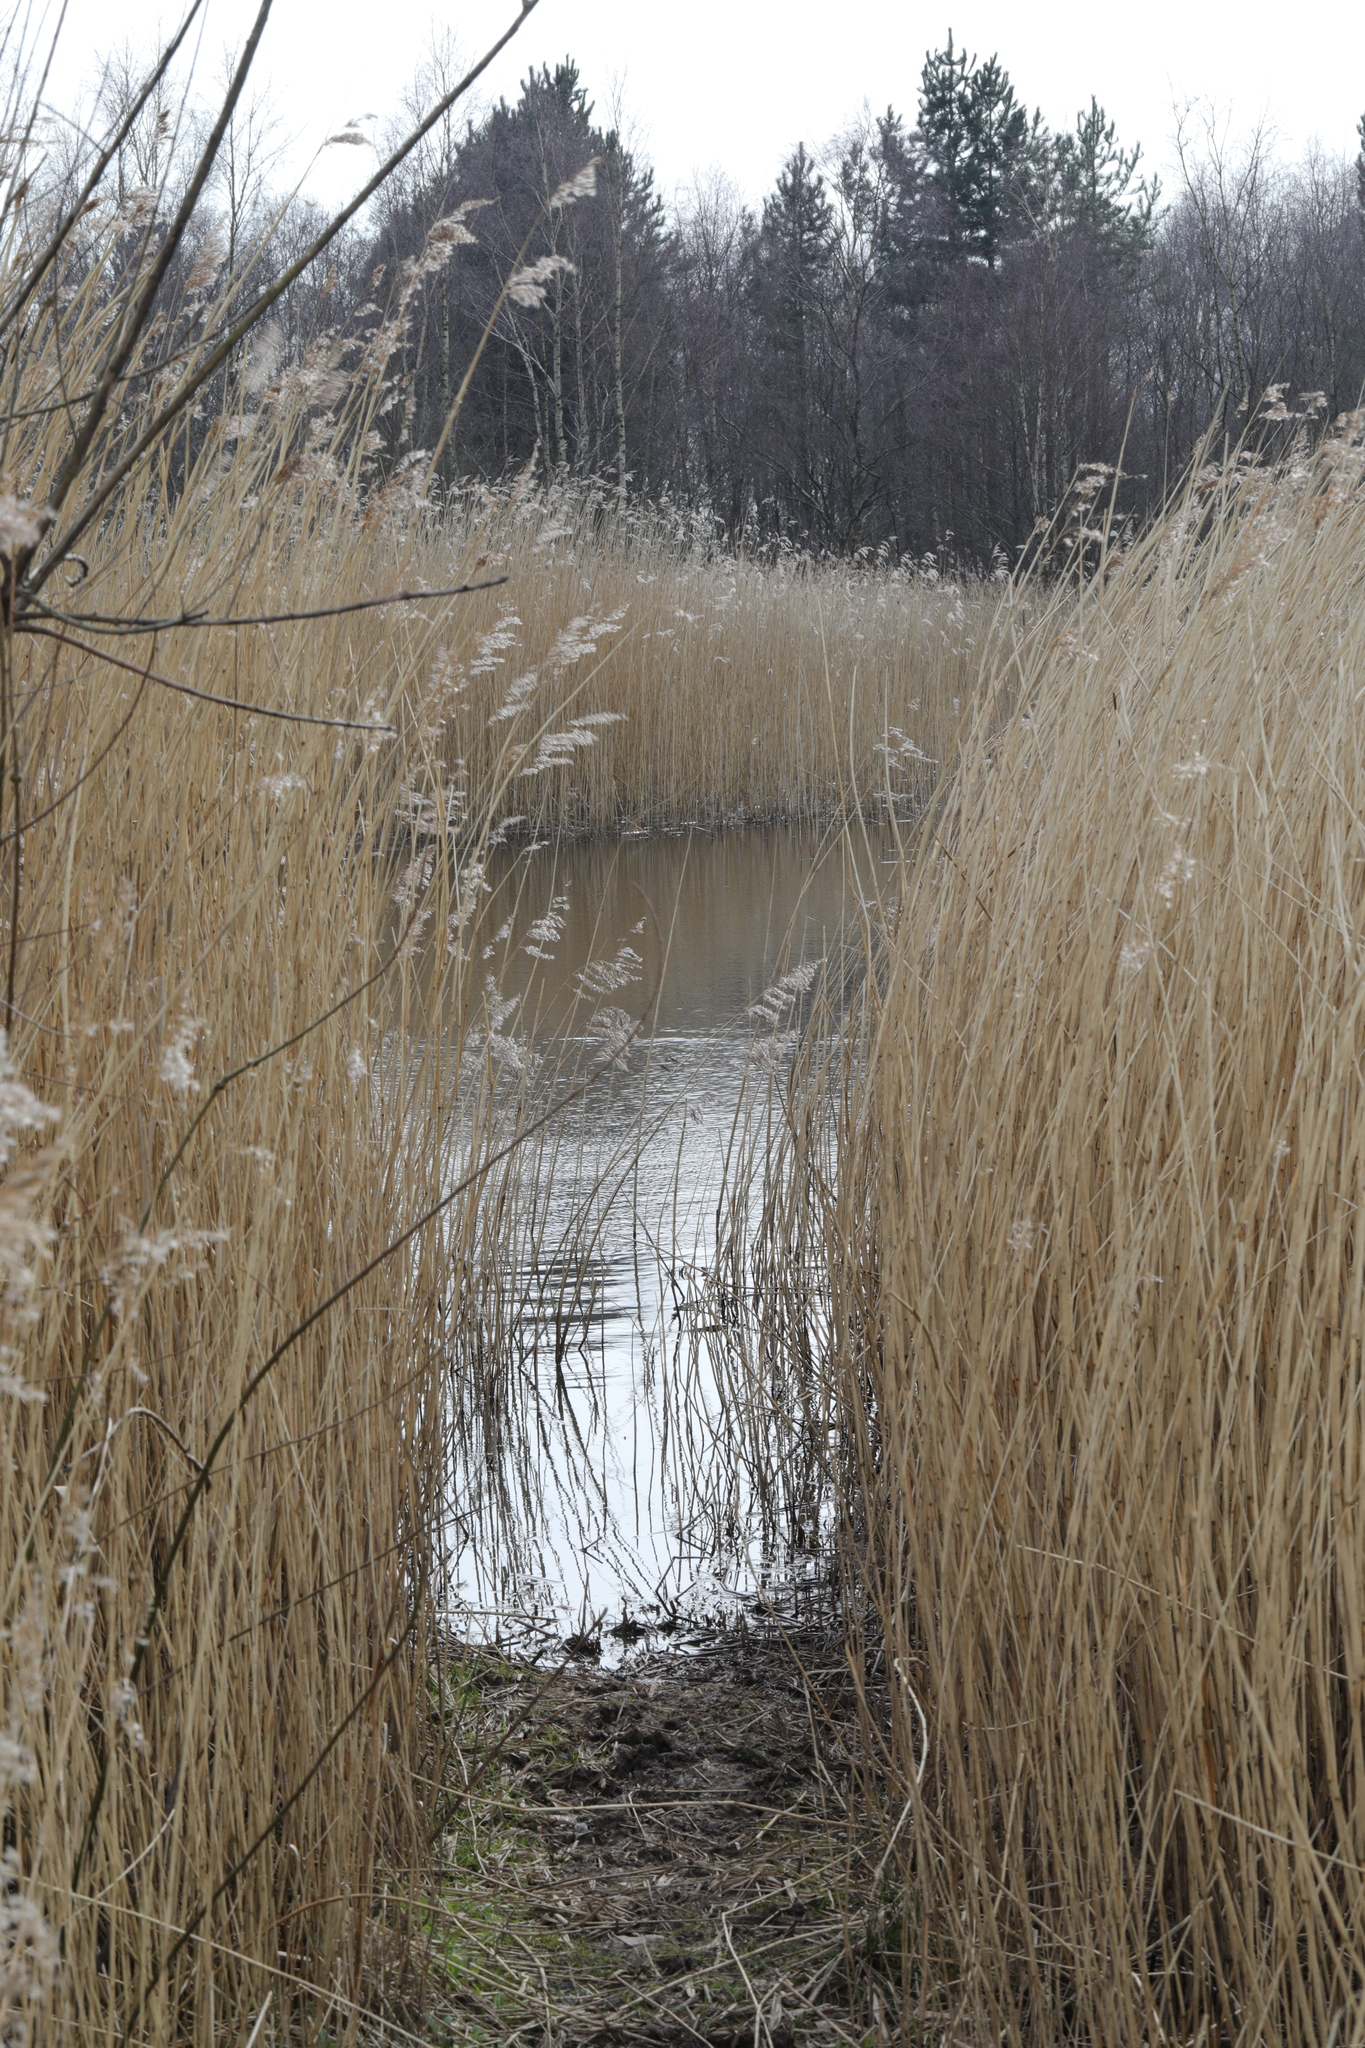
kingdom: Plantae
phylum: Tracheophyta
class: Liliopsida
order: Poales
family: Poaceae
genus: Phragmites
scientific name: Phragmites australis
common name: Common reed
